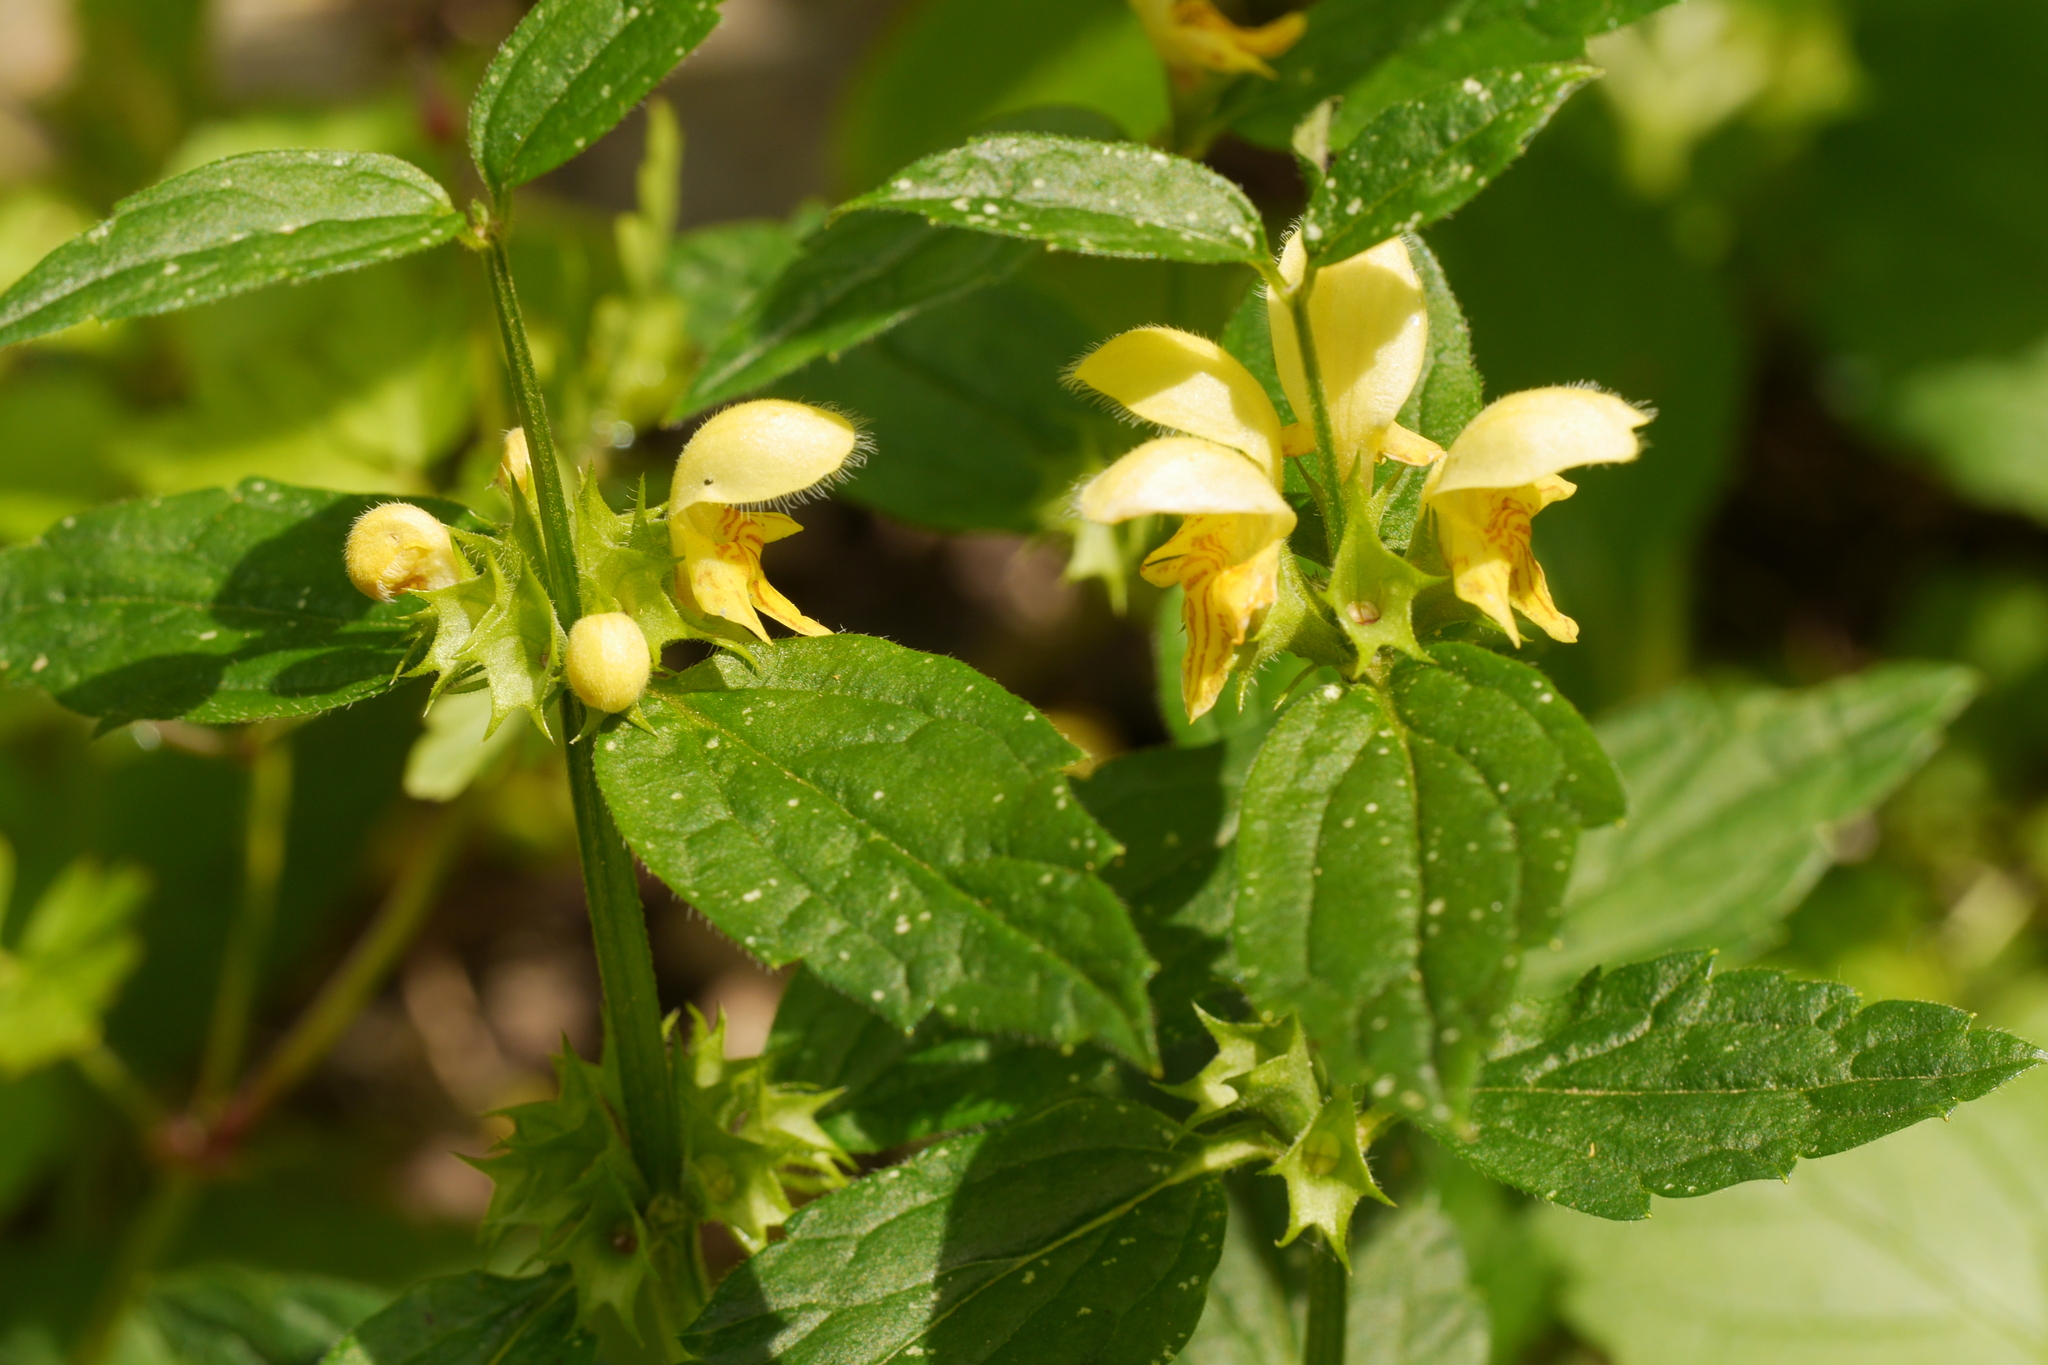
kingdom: Plantae
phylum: Tracheophyta
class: Magnoliopsida
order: Lamiales
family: Lamiaceae
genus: Lamium
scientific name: Lamium galeobdolon
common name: Yellow archangel
